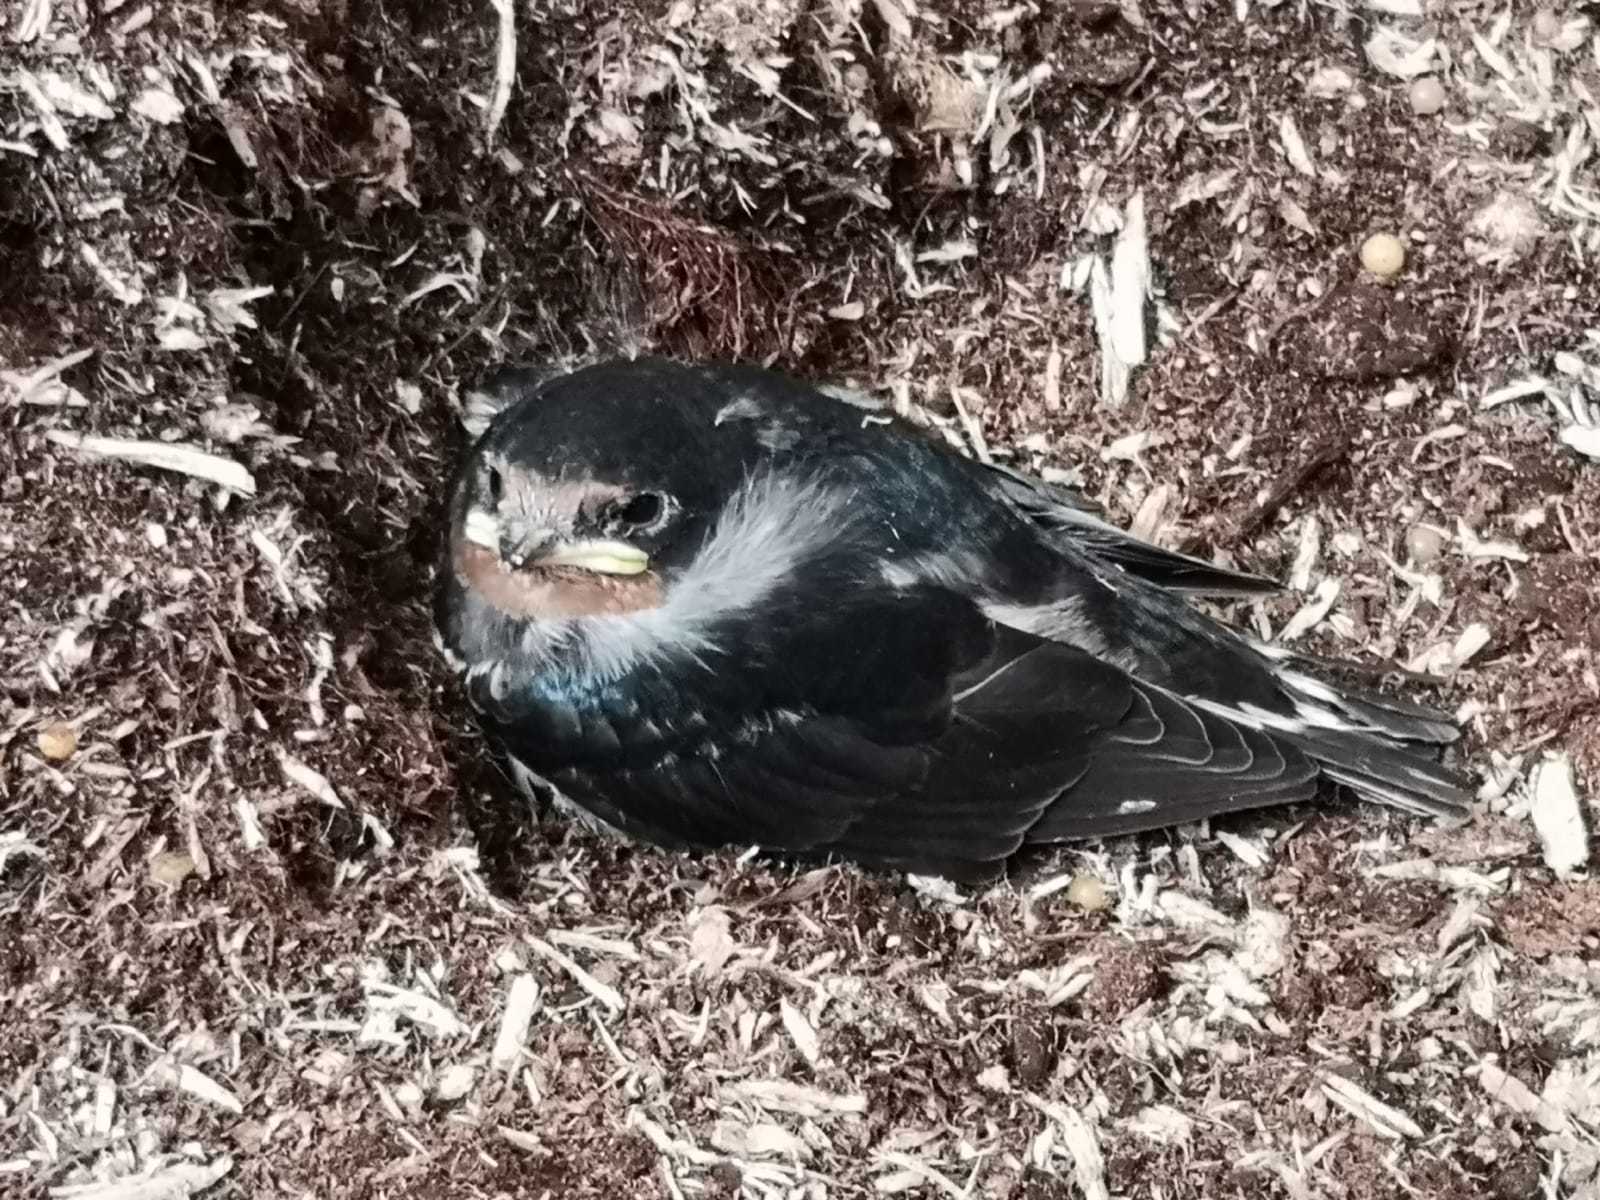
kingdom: Animalia
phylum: Chordata
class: Aves
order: Passeriformes
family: Hirundinidae
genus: Hirundo
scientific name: Hirundo rustica
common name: Barn swallow
